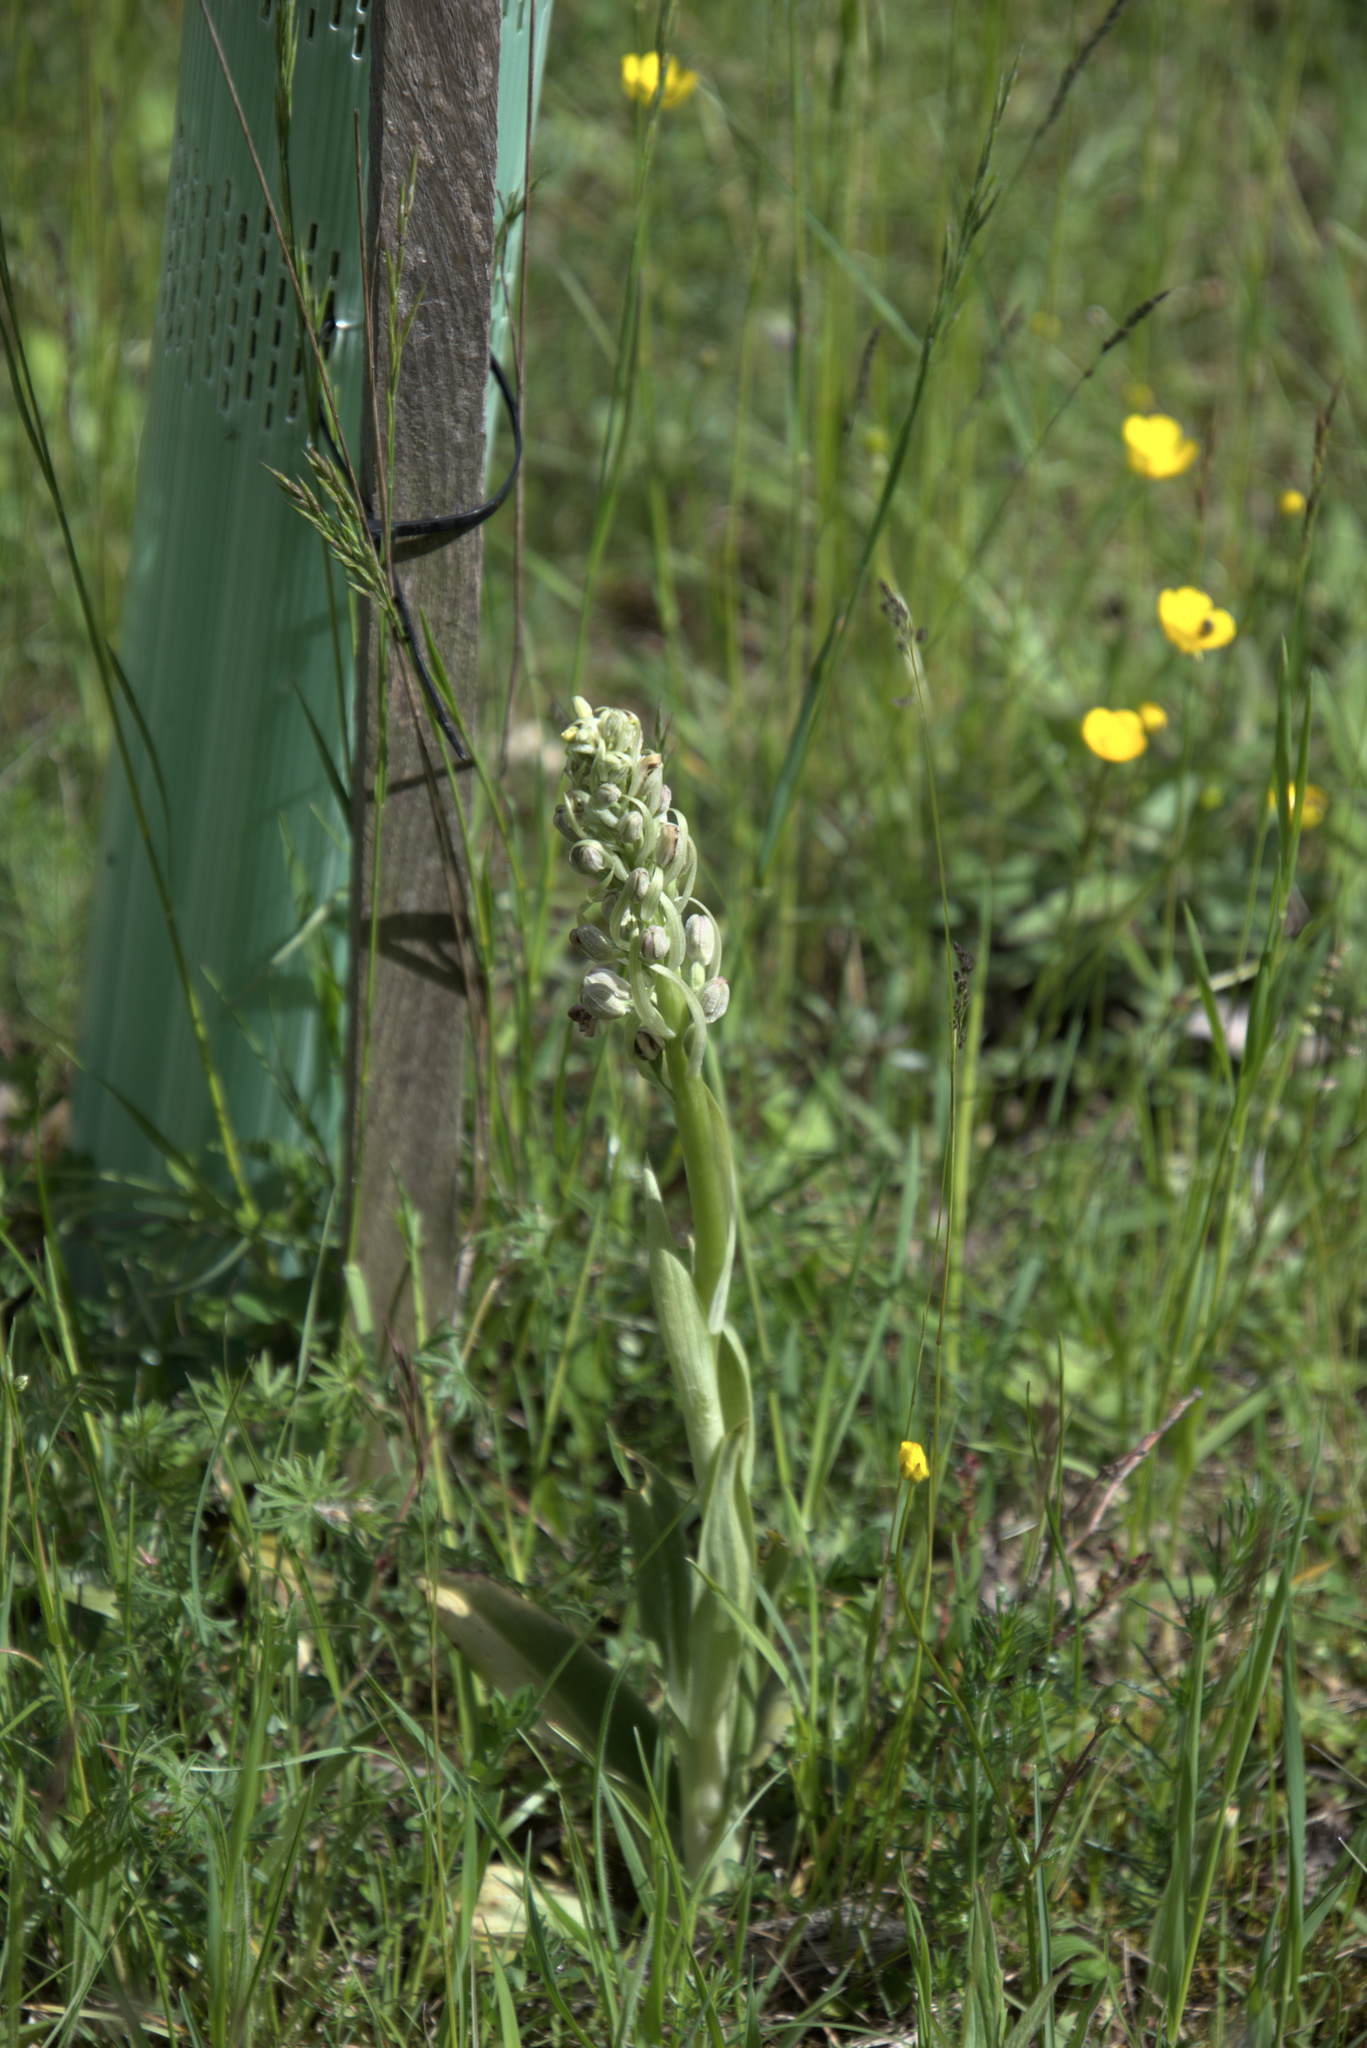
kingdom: Plantae
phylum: Tracheophyta
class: Liliopsida
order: Asparagales
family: Orchidaceae
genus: Himantoglossum
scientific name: Himantoglossum hircinum
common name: Lizard orchid
